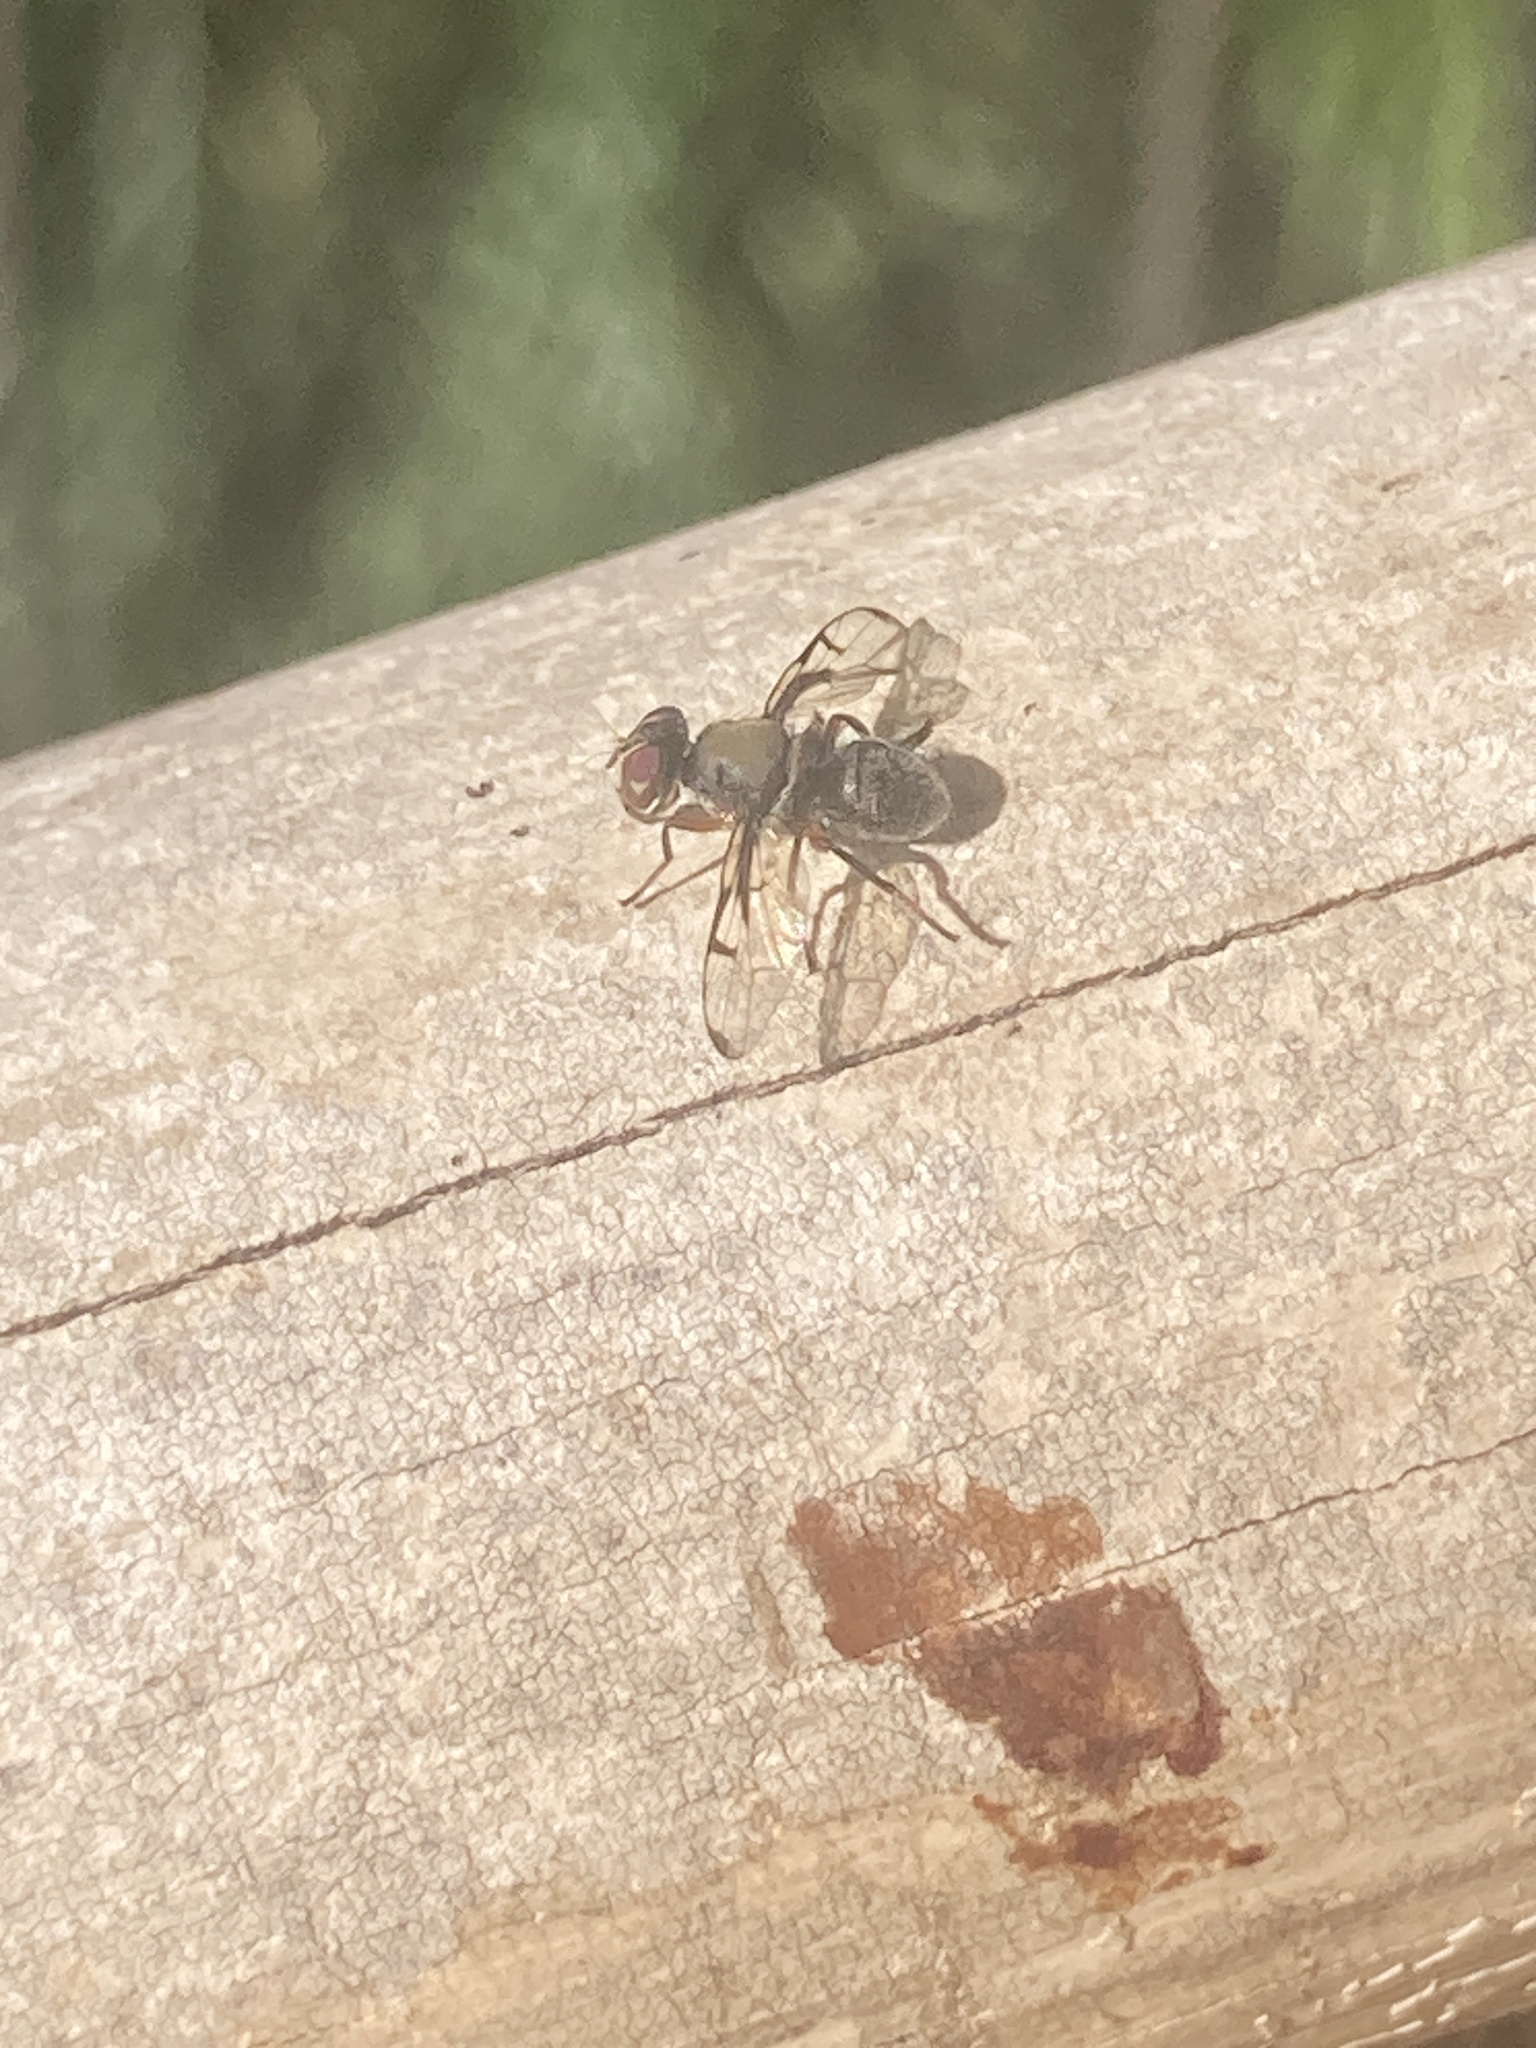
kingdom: Animalia
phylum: Arthropoda
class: Insecta
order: Diptera
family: Platystomatidae
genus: Pogonortalis
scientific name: Pogonortalis doclea
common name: Boatman fly
